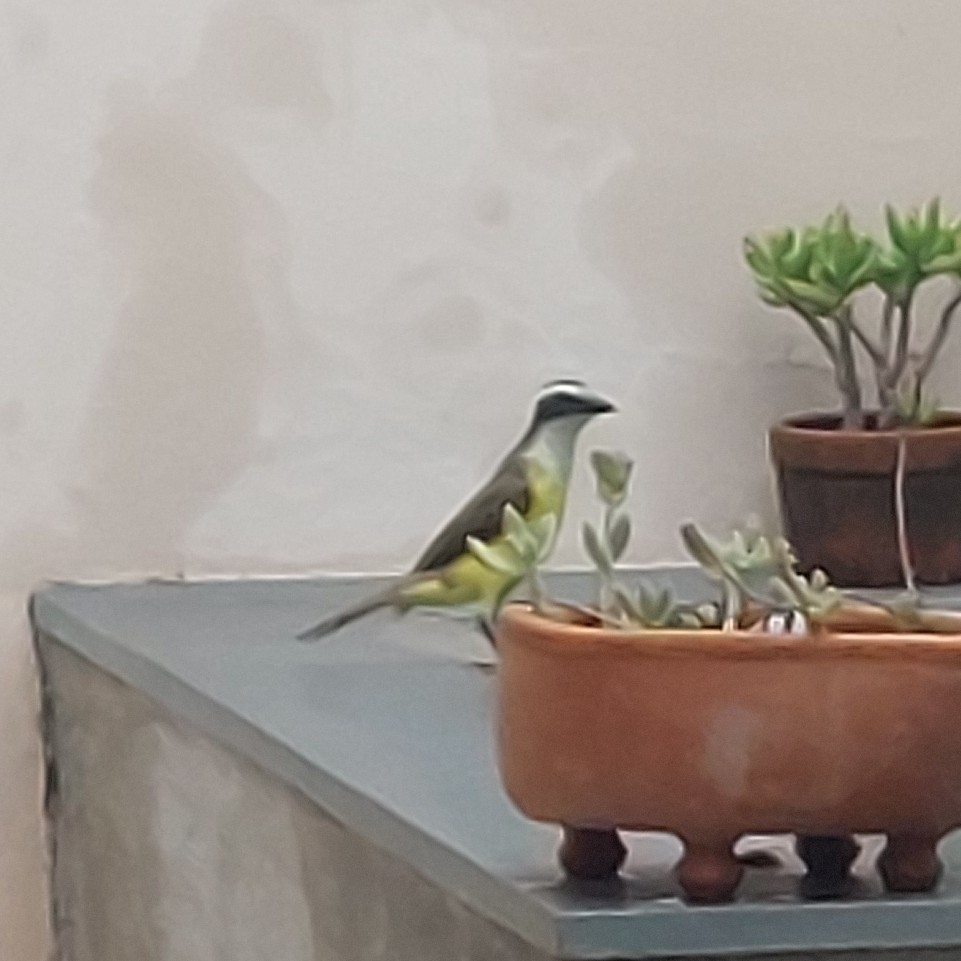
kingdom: Animalia
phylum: Chordata
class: Aves
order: Passeriformes
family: Tyrannidae
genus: Pitangus
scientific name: Pitangus sulphuratus
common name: Great kiskadee
